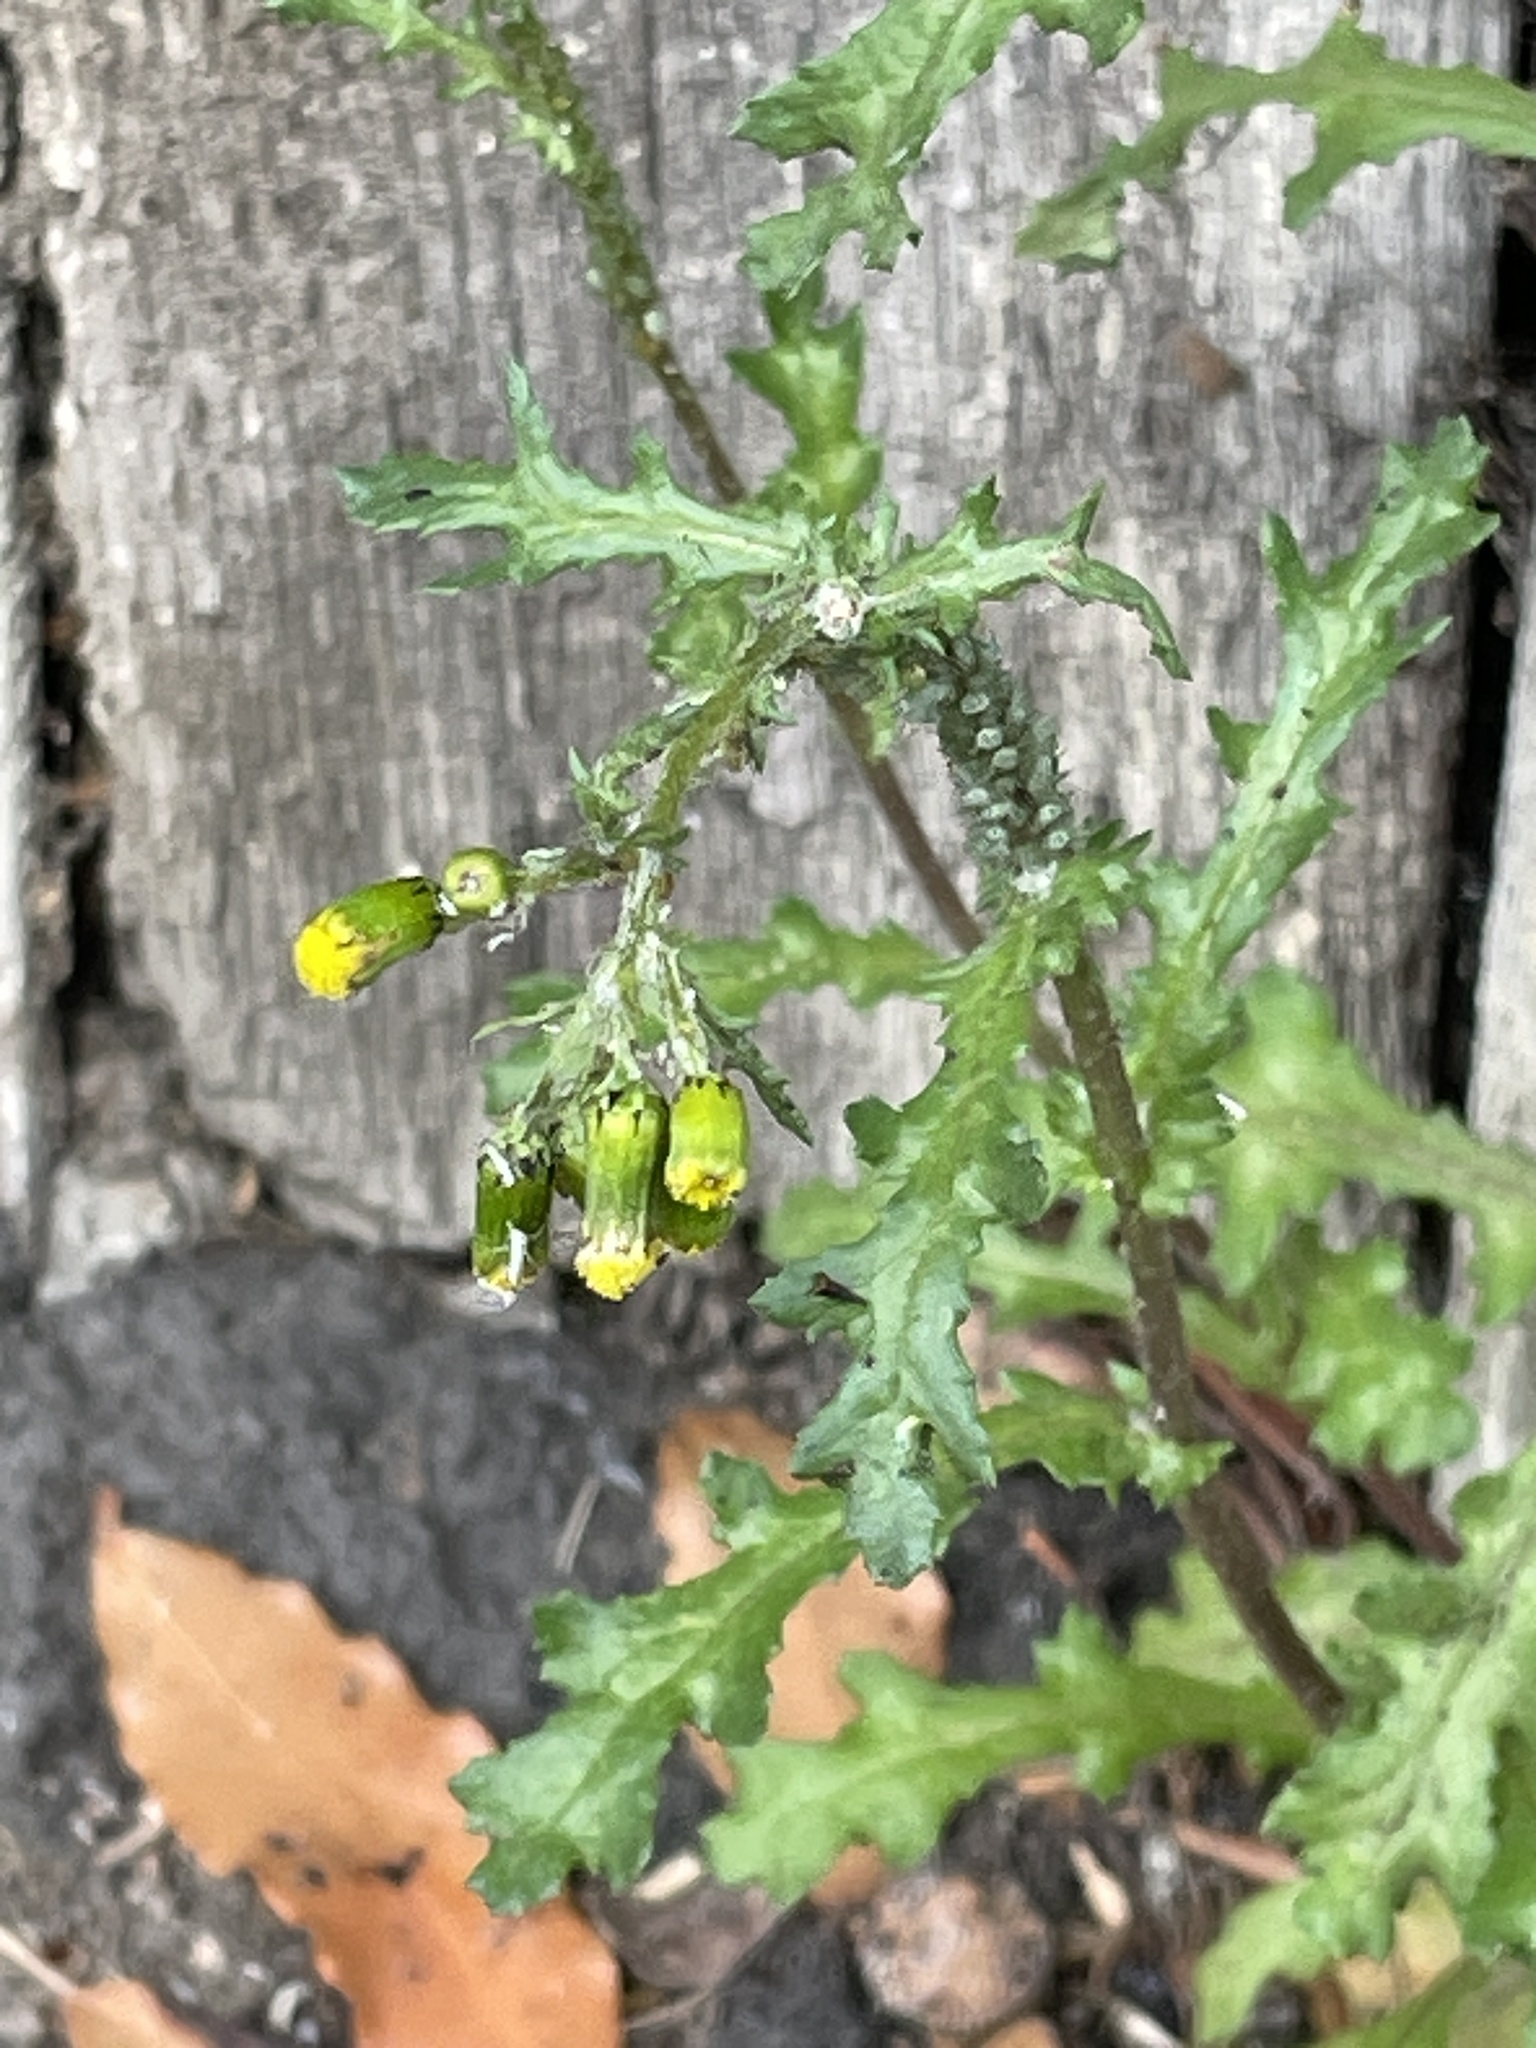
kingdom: Plantae
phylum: Tracheophyta
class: Magnoliopsida
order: Asterales
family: Asteraceae
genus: Senecio
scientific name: Senecio vulgaris
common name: Old-man-in-the-spring
